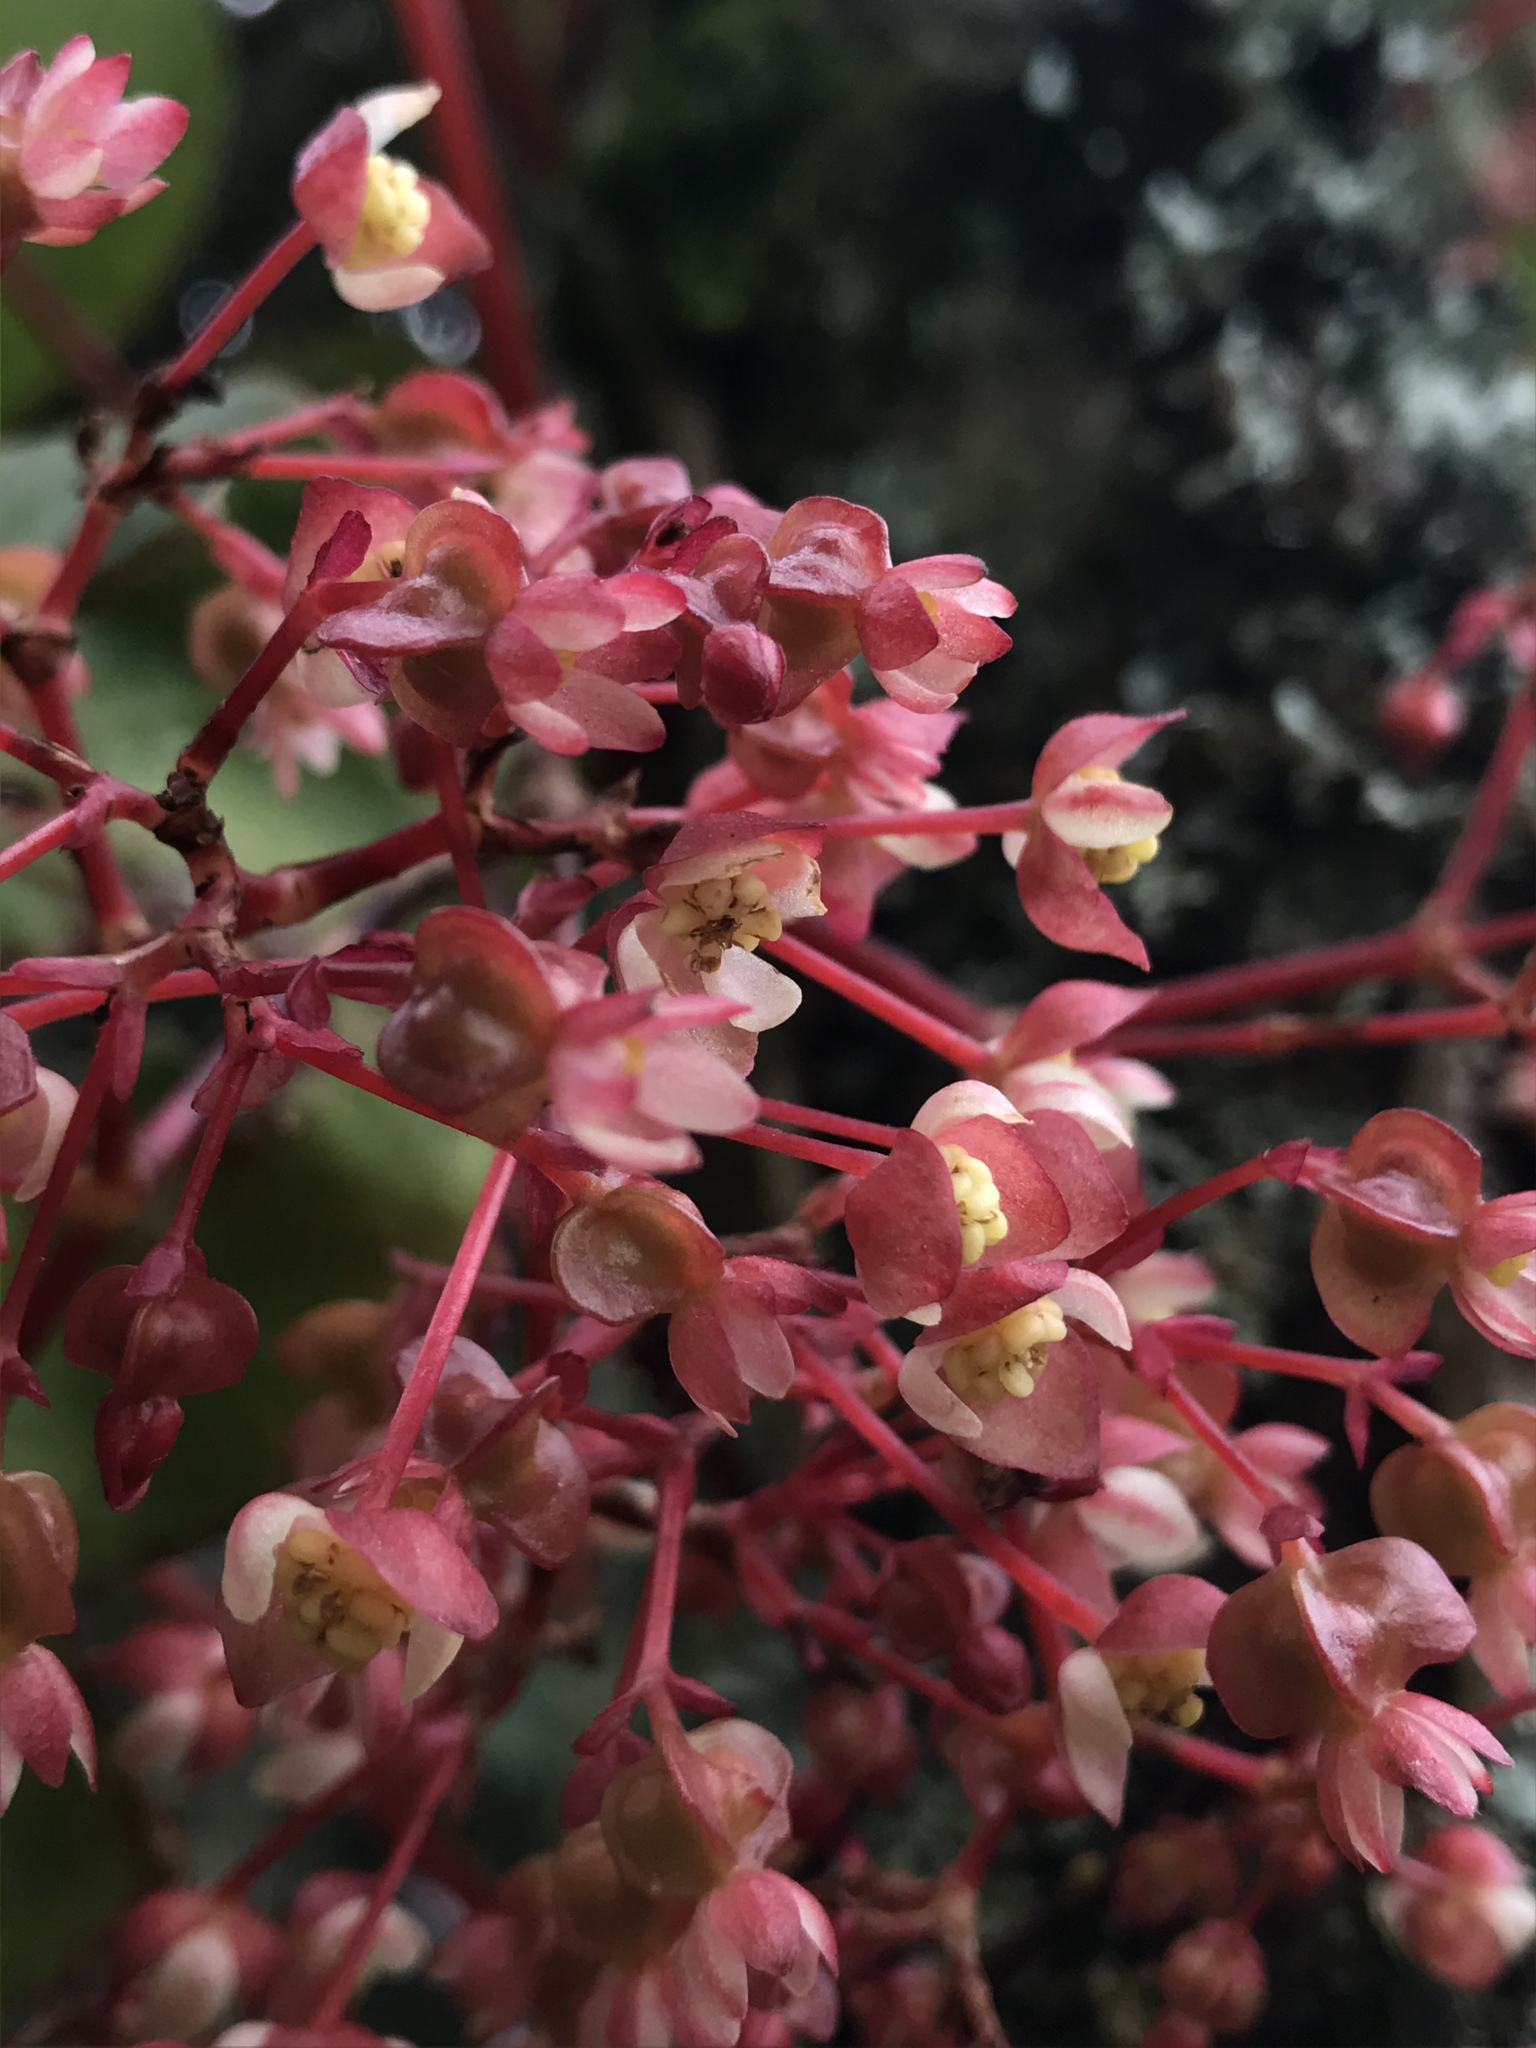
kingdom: Plantae
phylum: Tracheophyta
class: Magnoliopsida
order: Cucurbitales
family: Begoniaceae
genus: Begonia
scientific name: Begonia tropaeolifolia
